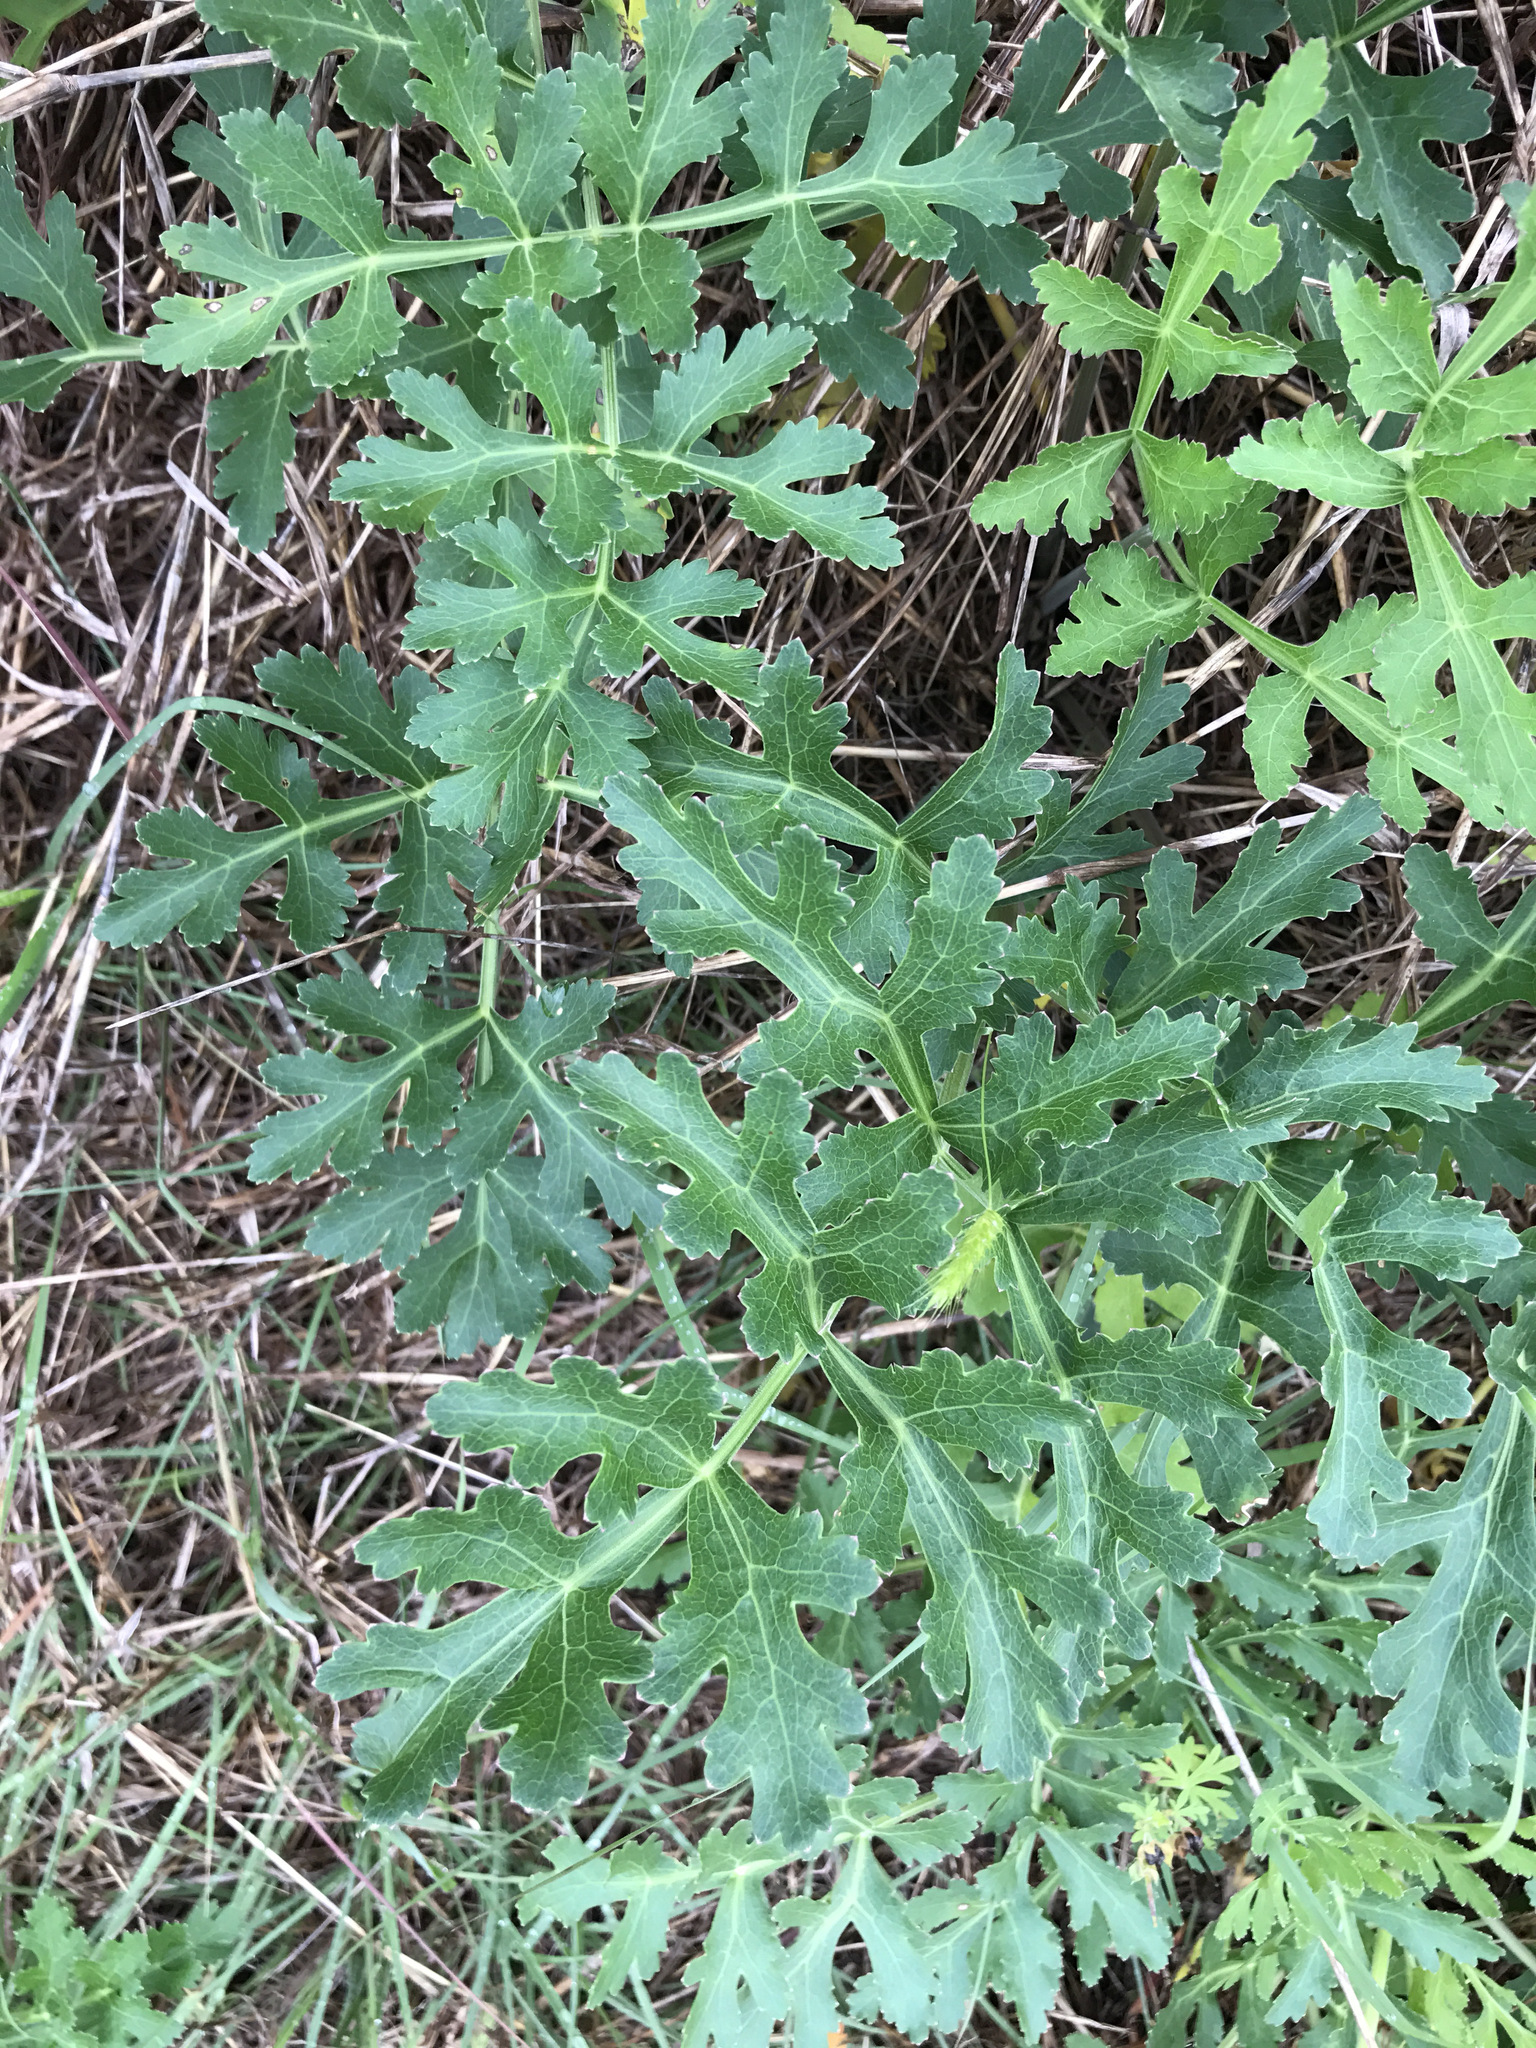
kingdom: Plantae
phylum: Tracheophyta
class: Magnoliopsida
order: Apiales
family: Apiaceae
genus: Polytaenia
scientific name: Polytaenia texana
